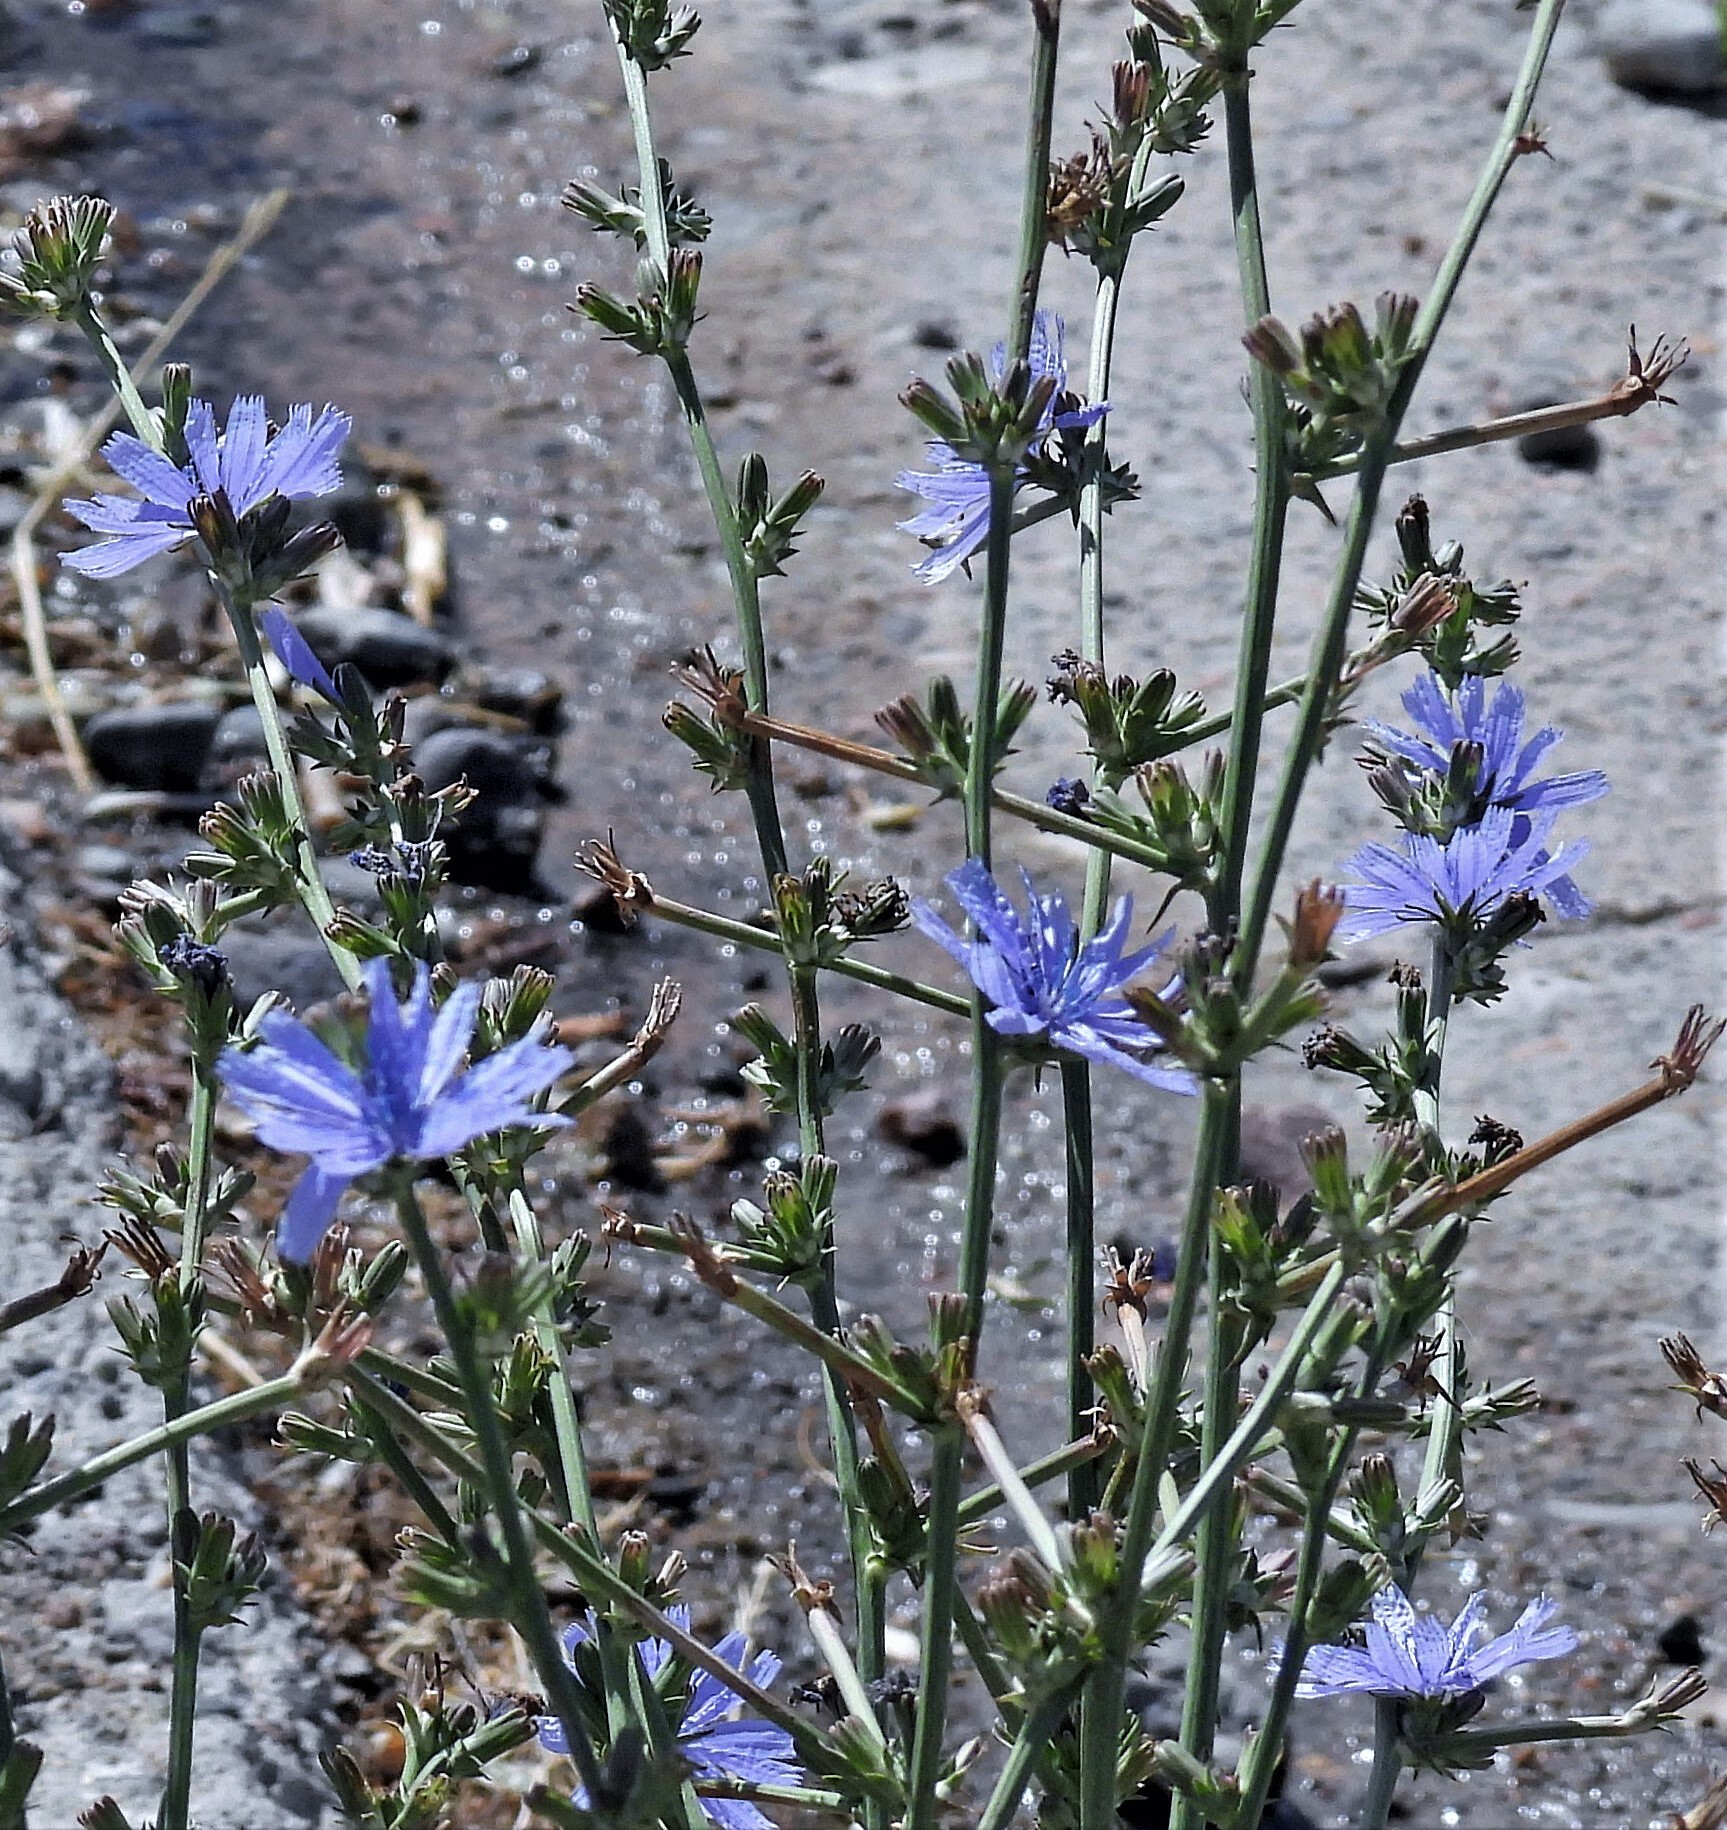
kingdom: Plantae
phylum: Tracheophyta
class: Magnoliopsida
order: Asterales
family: Asteraceae
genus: Cichorium
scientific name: Cichorium intybus
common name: Chicory
